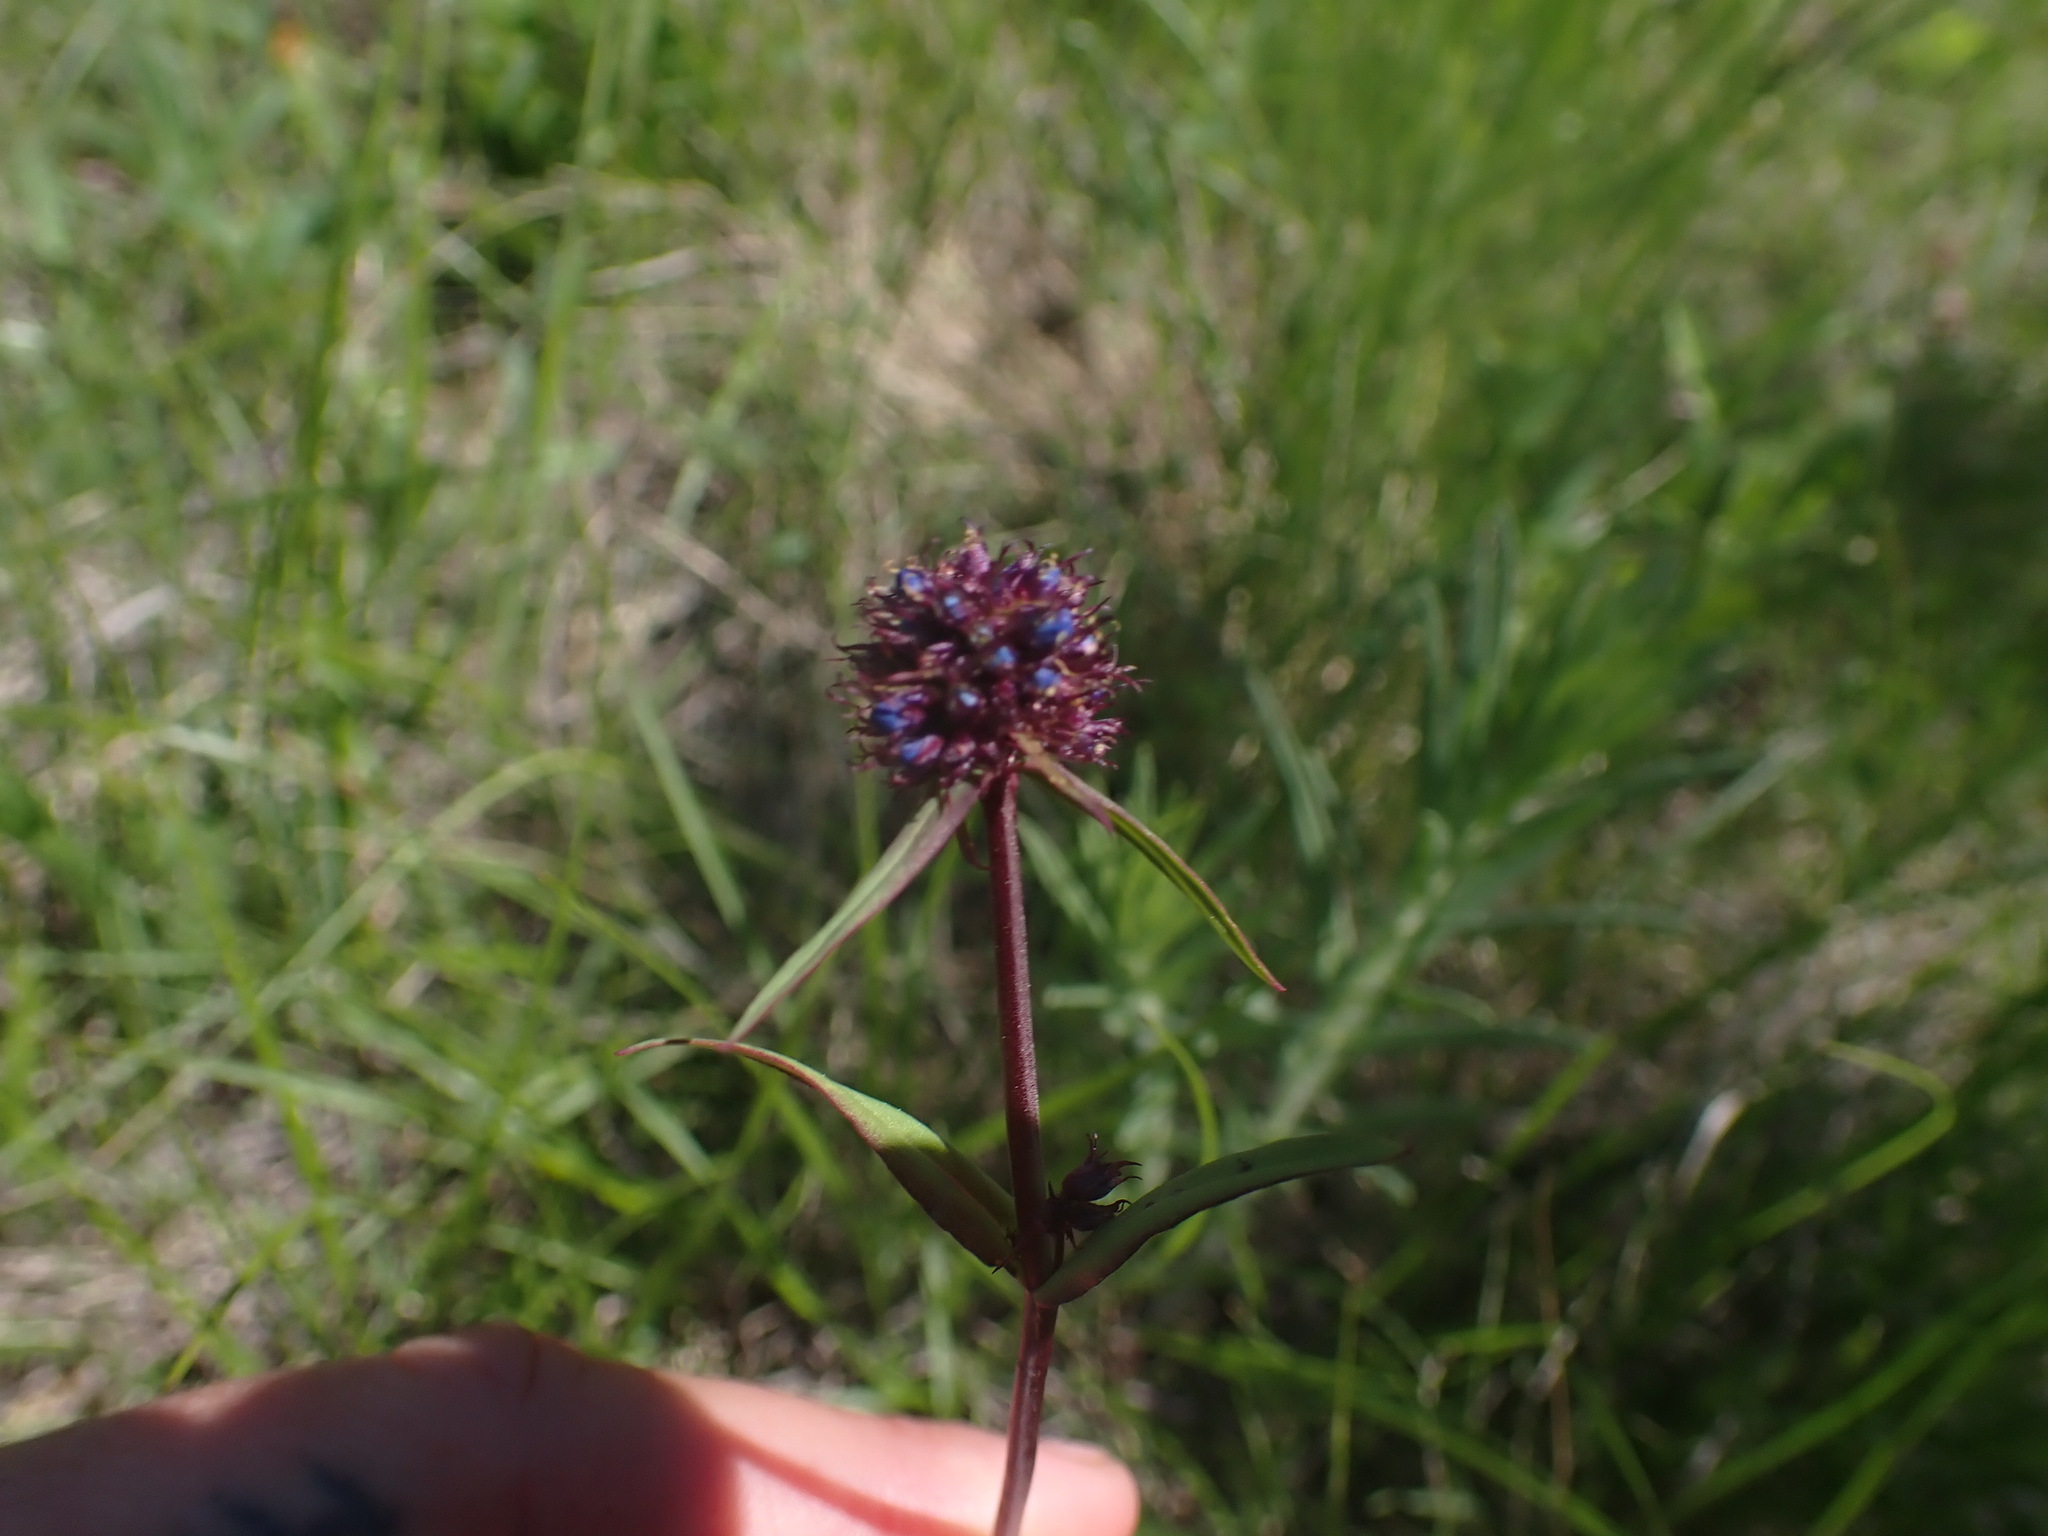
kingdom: Plantae
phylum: Tracheophyta
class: Magnoliopsida
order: Lamiales
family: Plantaginaceae
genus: Penstemon
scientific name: Penstemon procerus
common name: Small-flower penstemon
